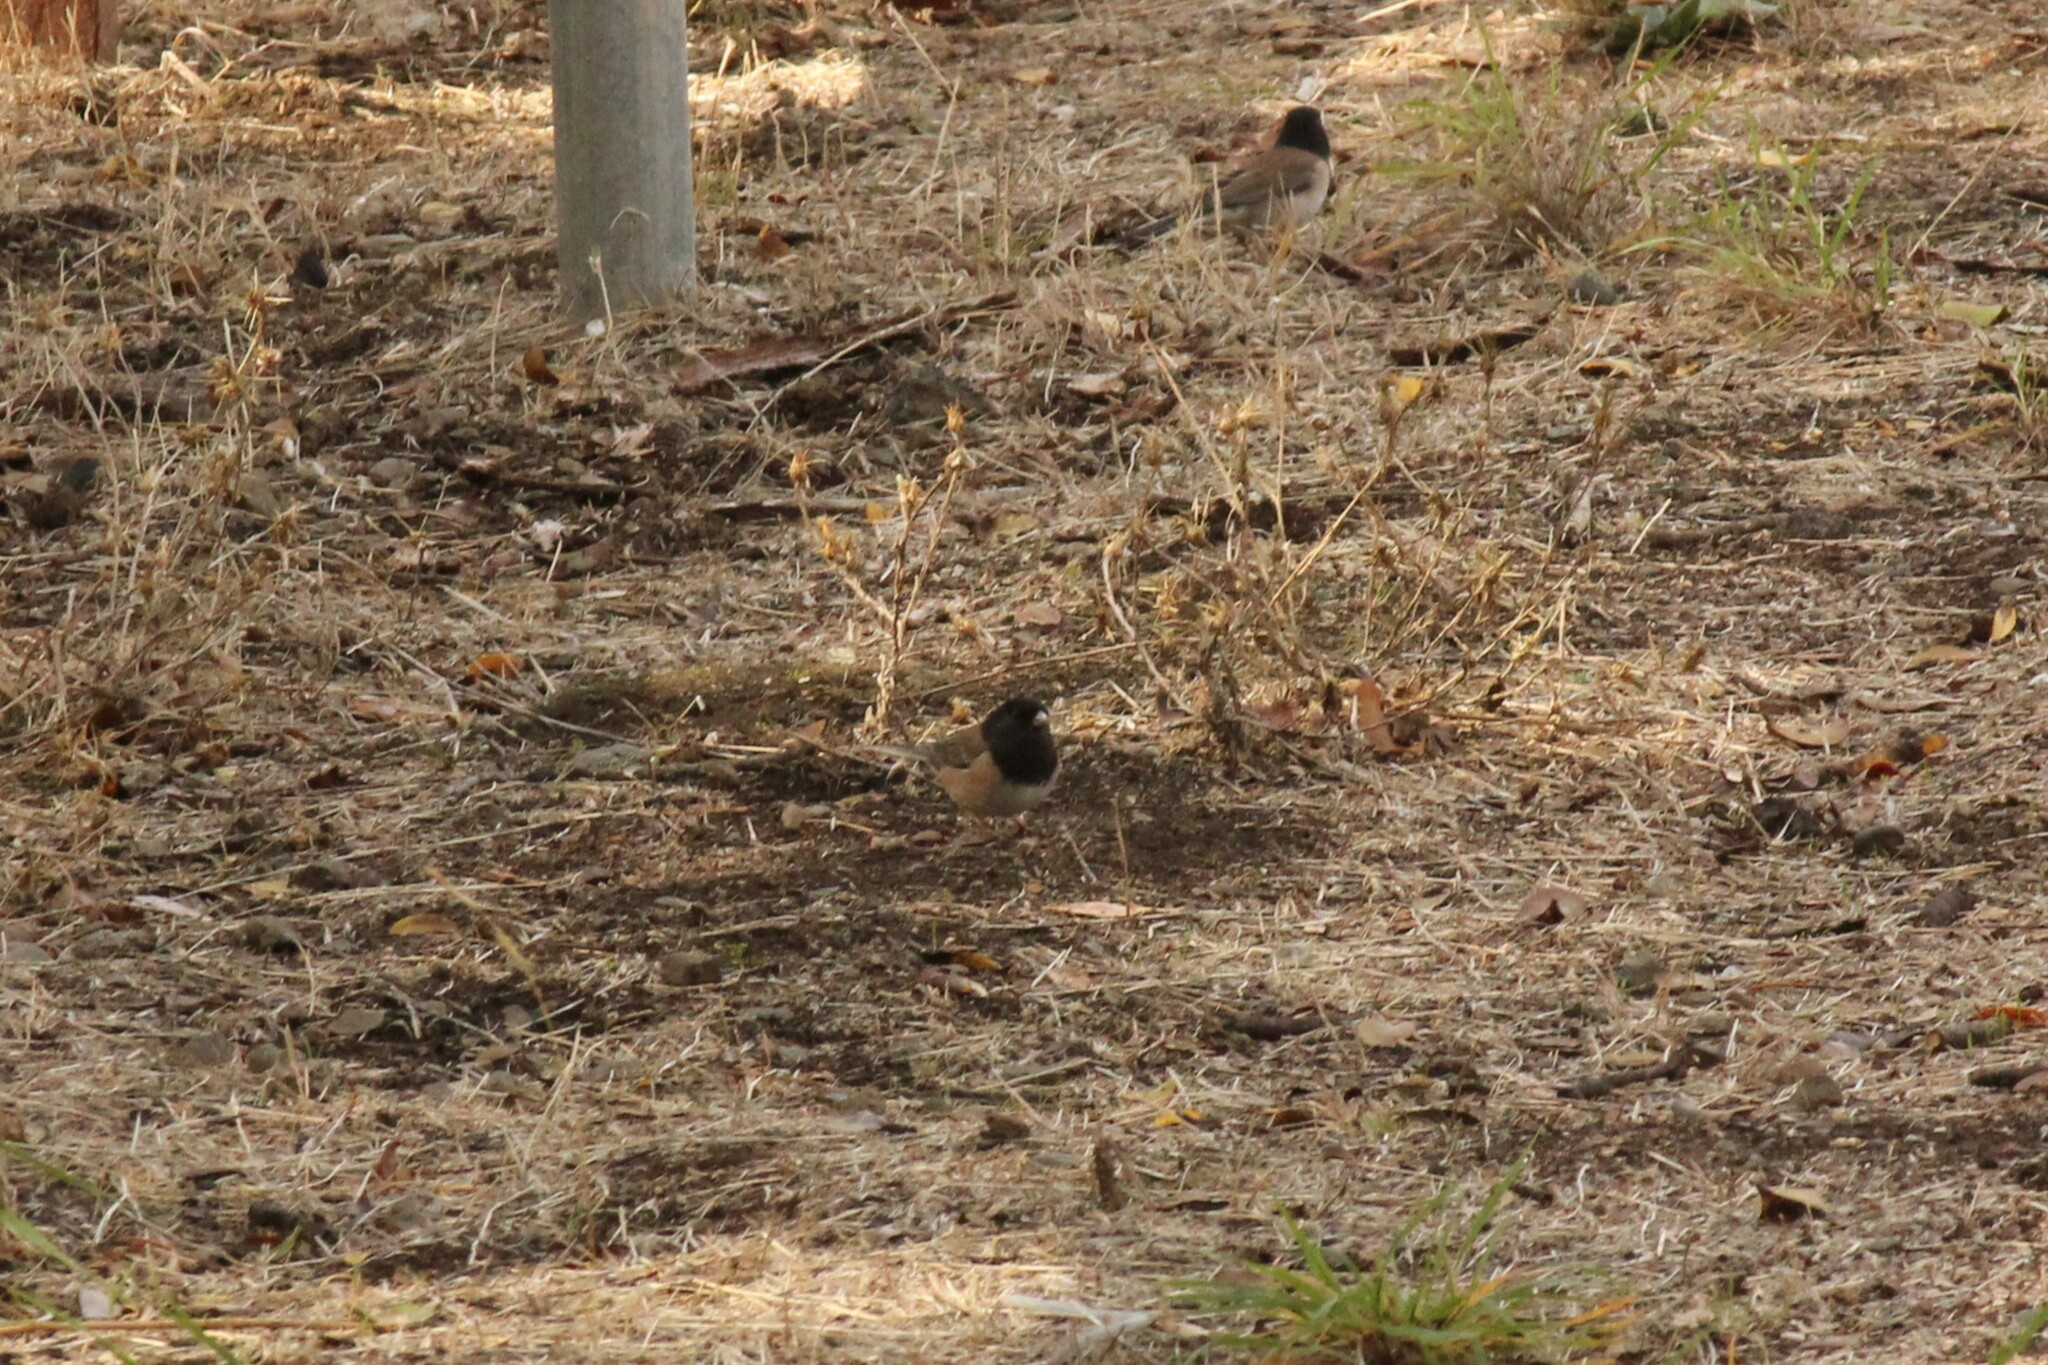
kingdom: Animalia
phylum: Chordata
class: Aves
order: Passeriformes
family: Passerellidae
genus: Junco
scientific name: Junco hyemalis
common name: Dark-eyed junco
